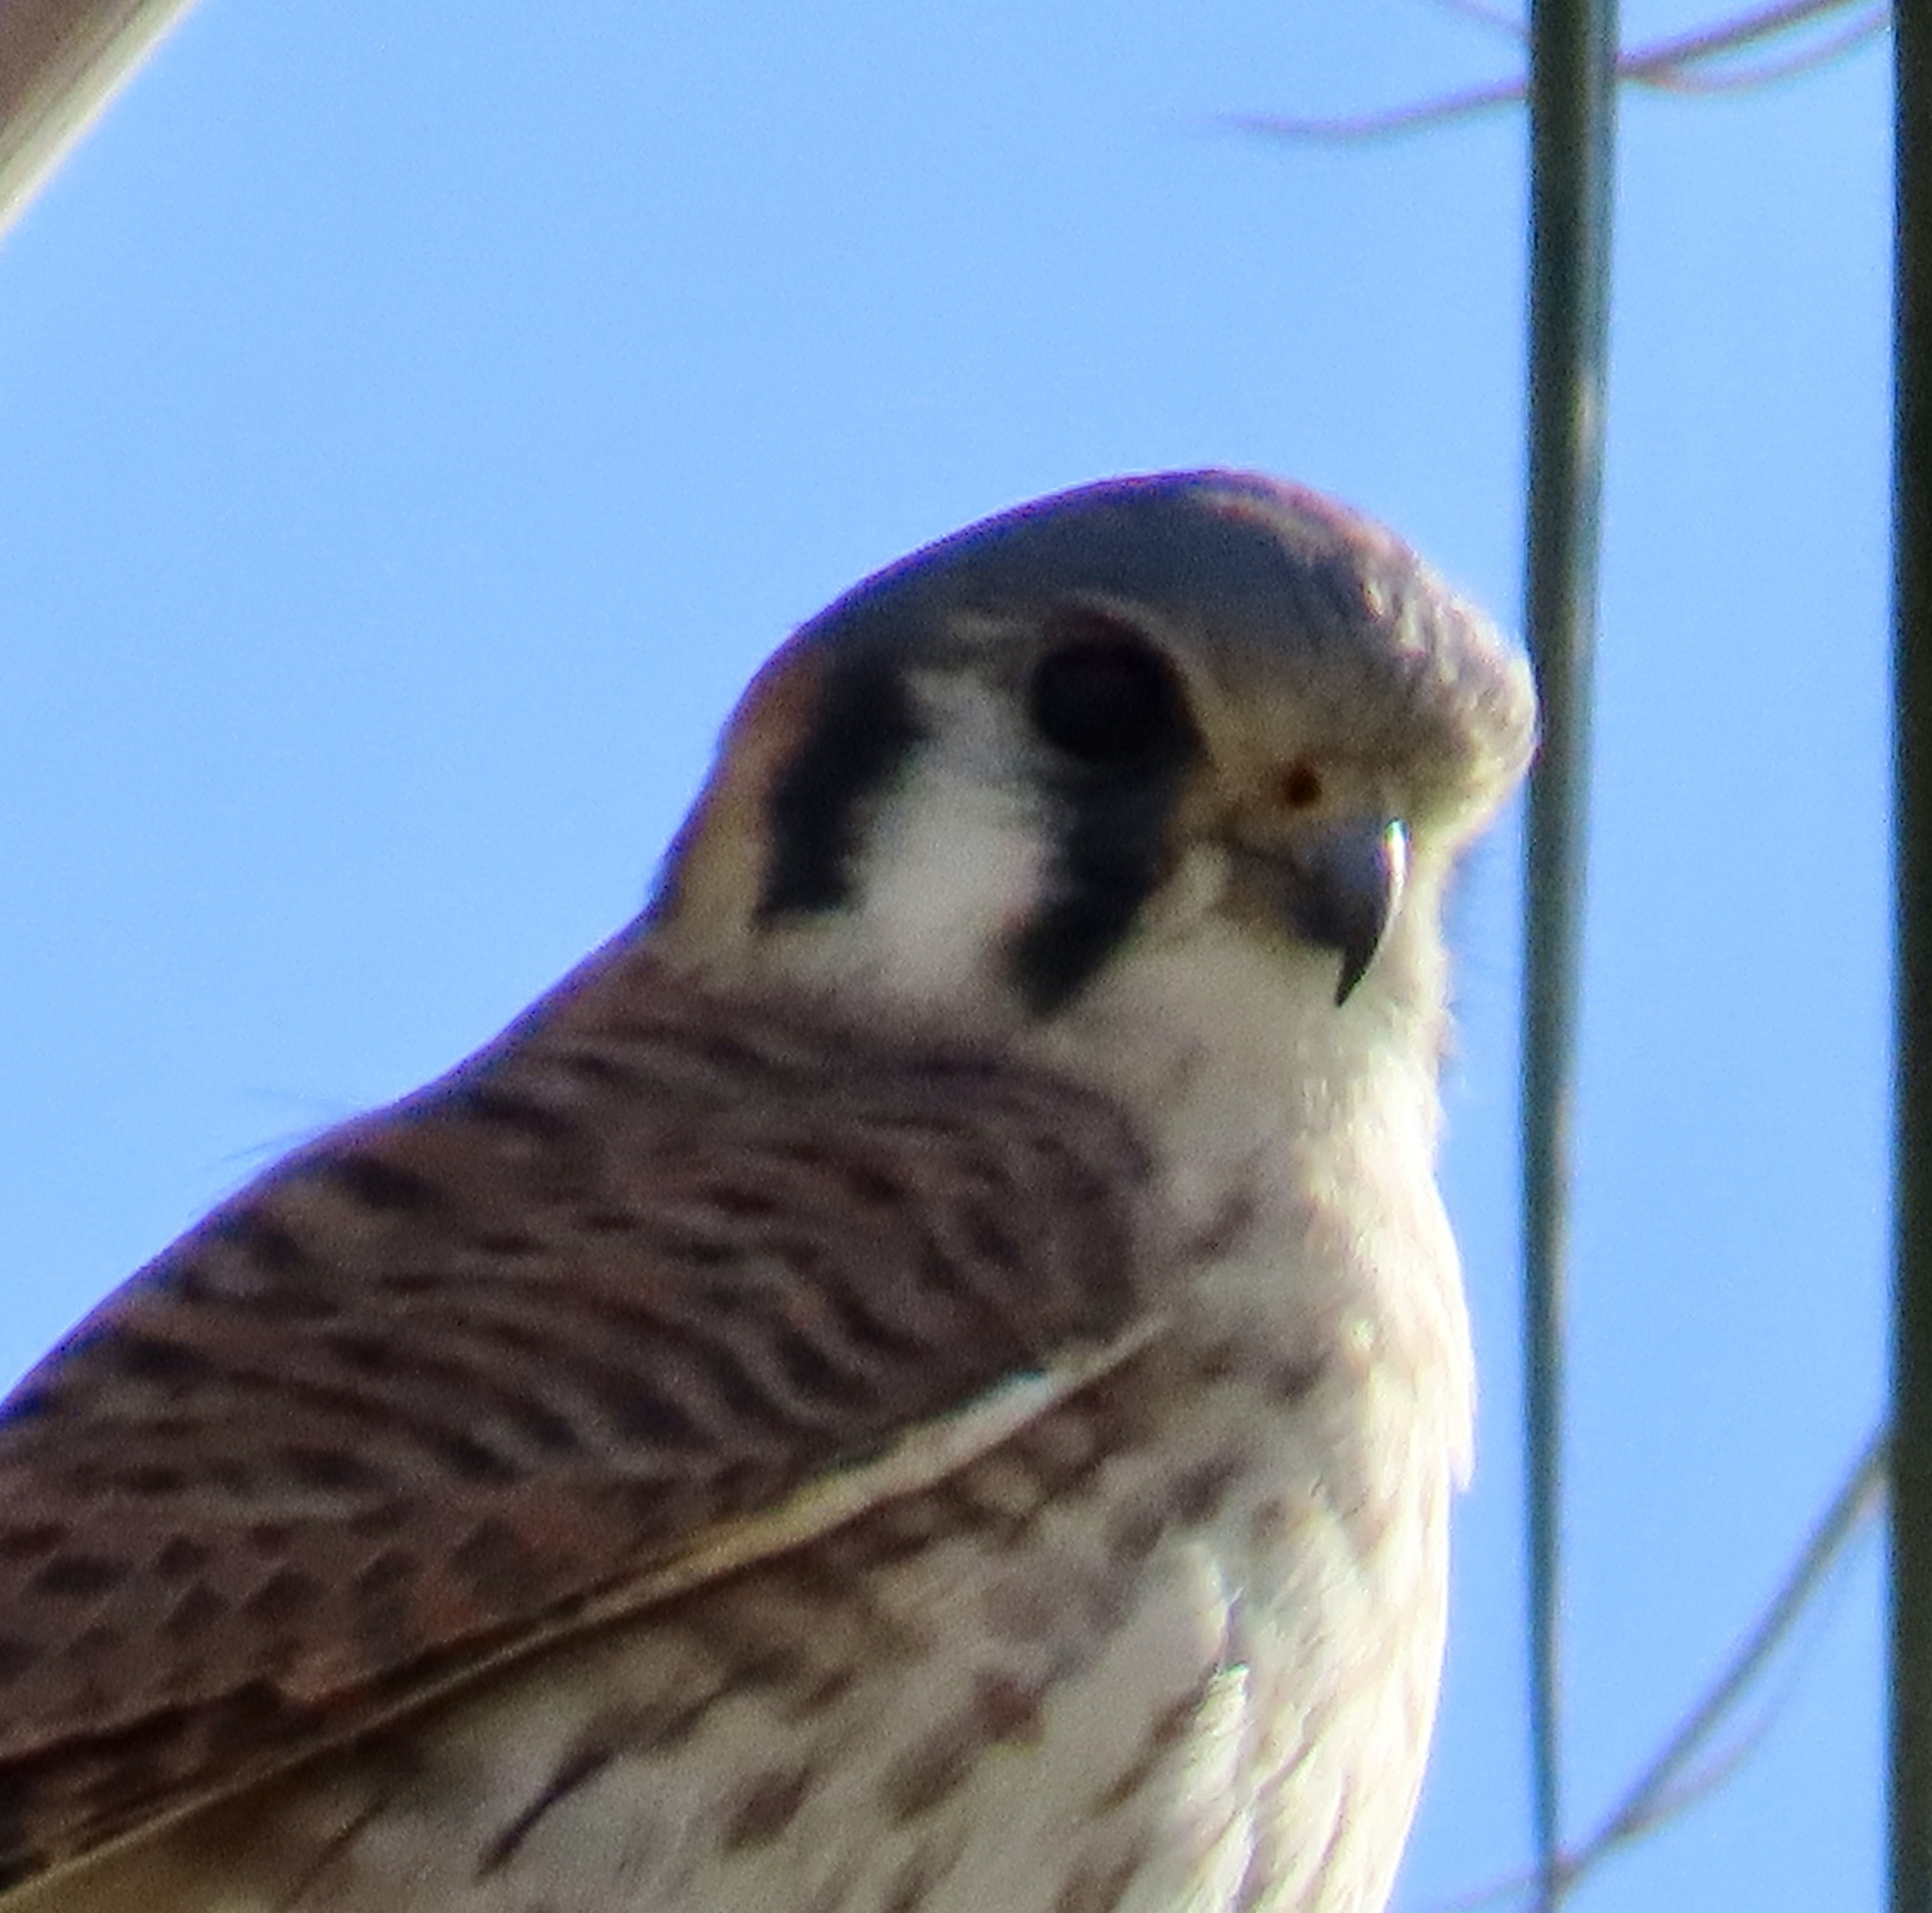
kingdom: Animalia
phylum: Chordata
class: Aves
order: Falconiformes
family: Falconidae
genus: Falco
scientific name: Falco sparverius
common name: American kestrel
